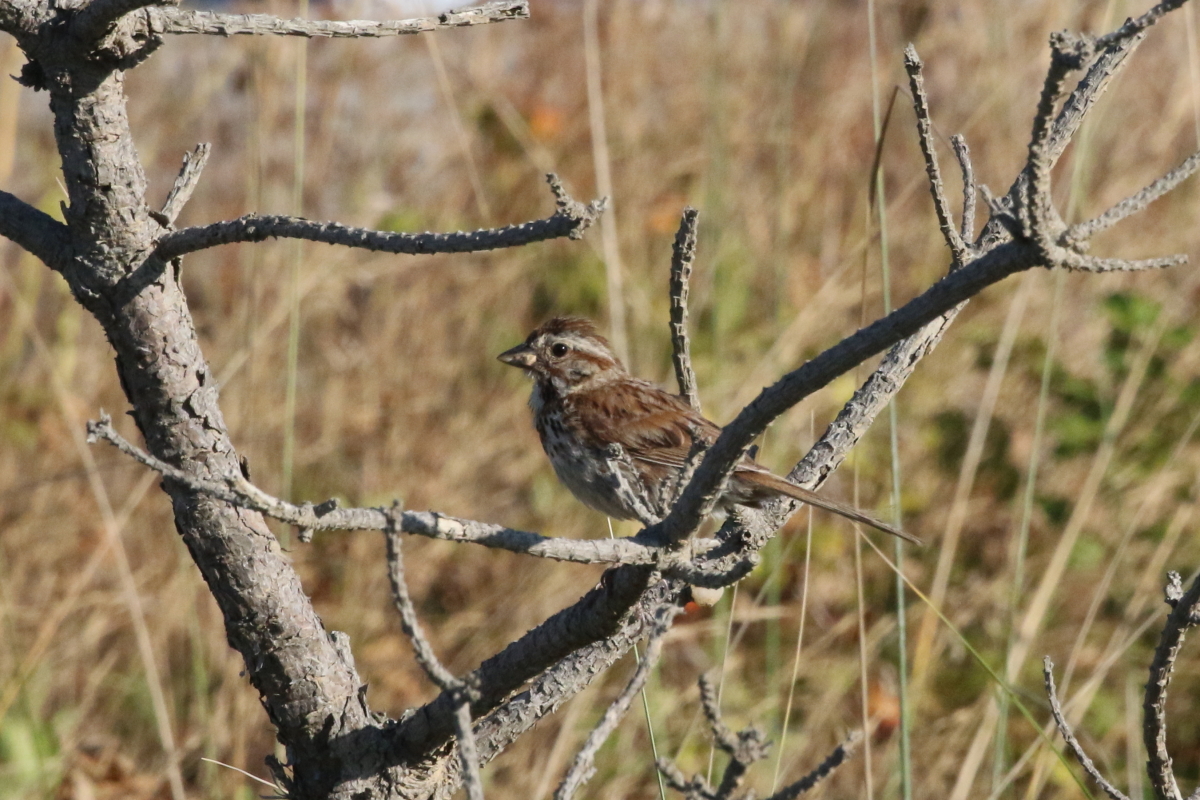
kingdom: Animalia
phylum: Chordata
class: Aves
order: Passeriformes
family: Passerellidae
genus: Melospiza
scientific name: Melospiza melodia
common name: Song sparrow
